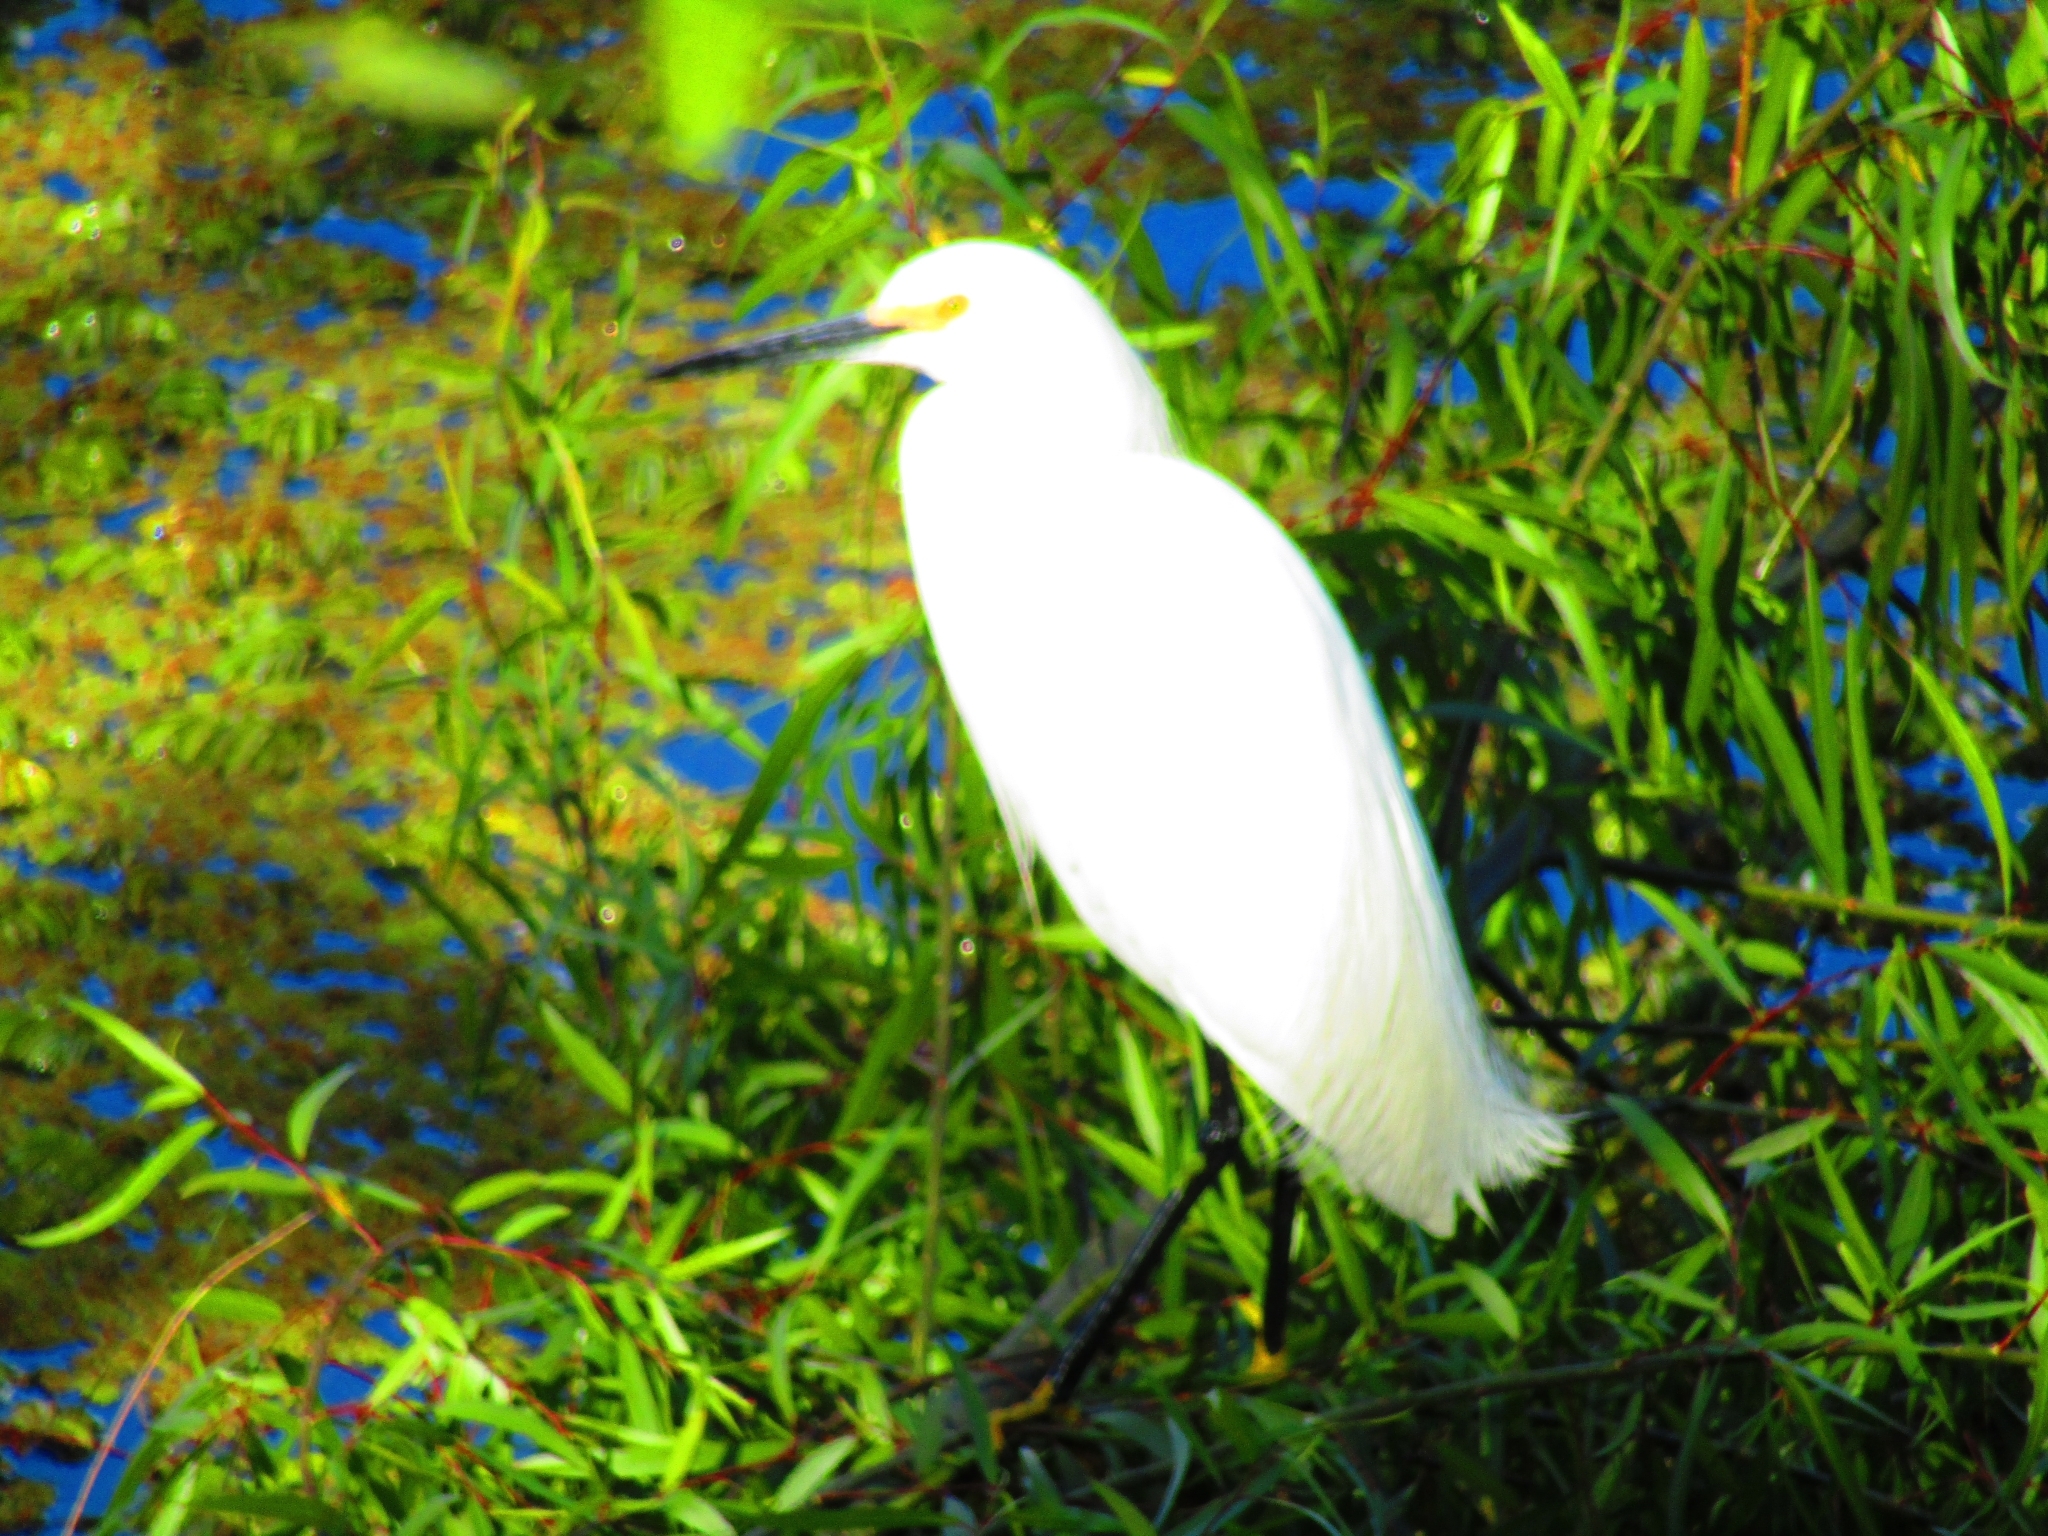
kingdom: Animalia
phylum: Chordata
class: Aves
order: Pelecaniformes
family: Ardeidae
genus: Egretta
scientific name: Egretta thula
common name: Snowy egret
